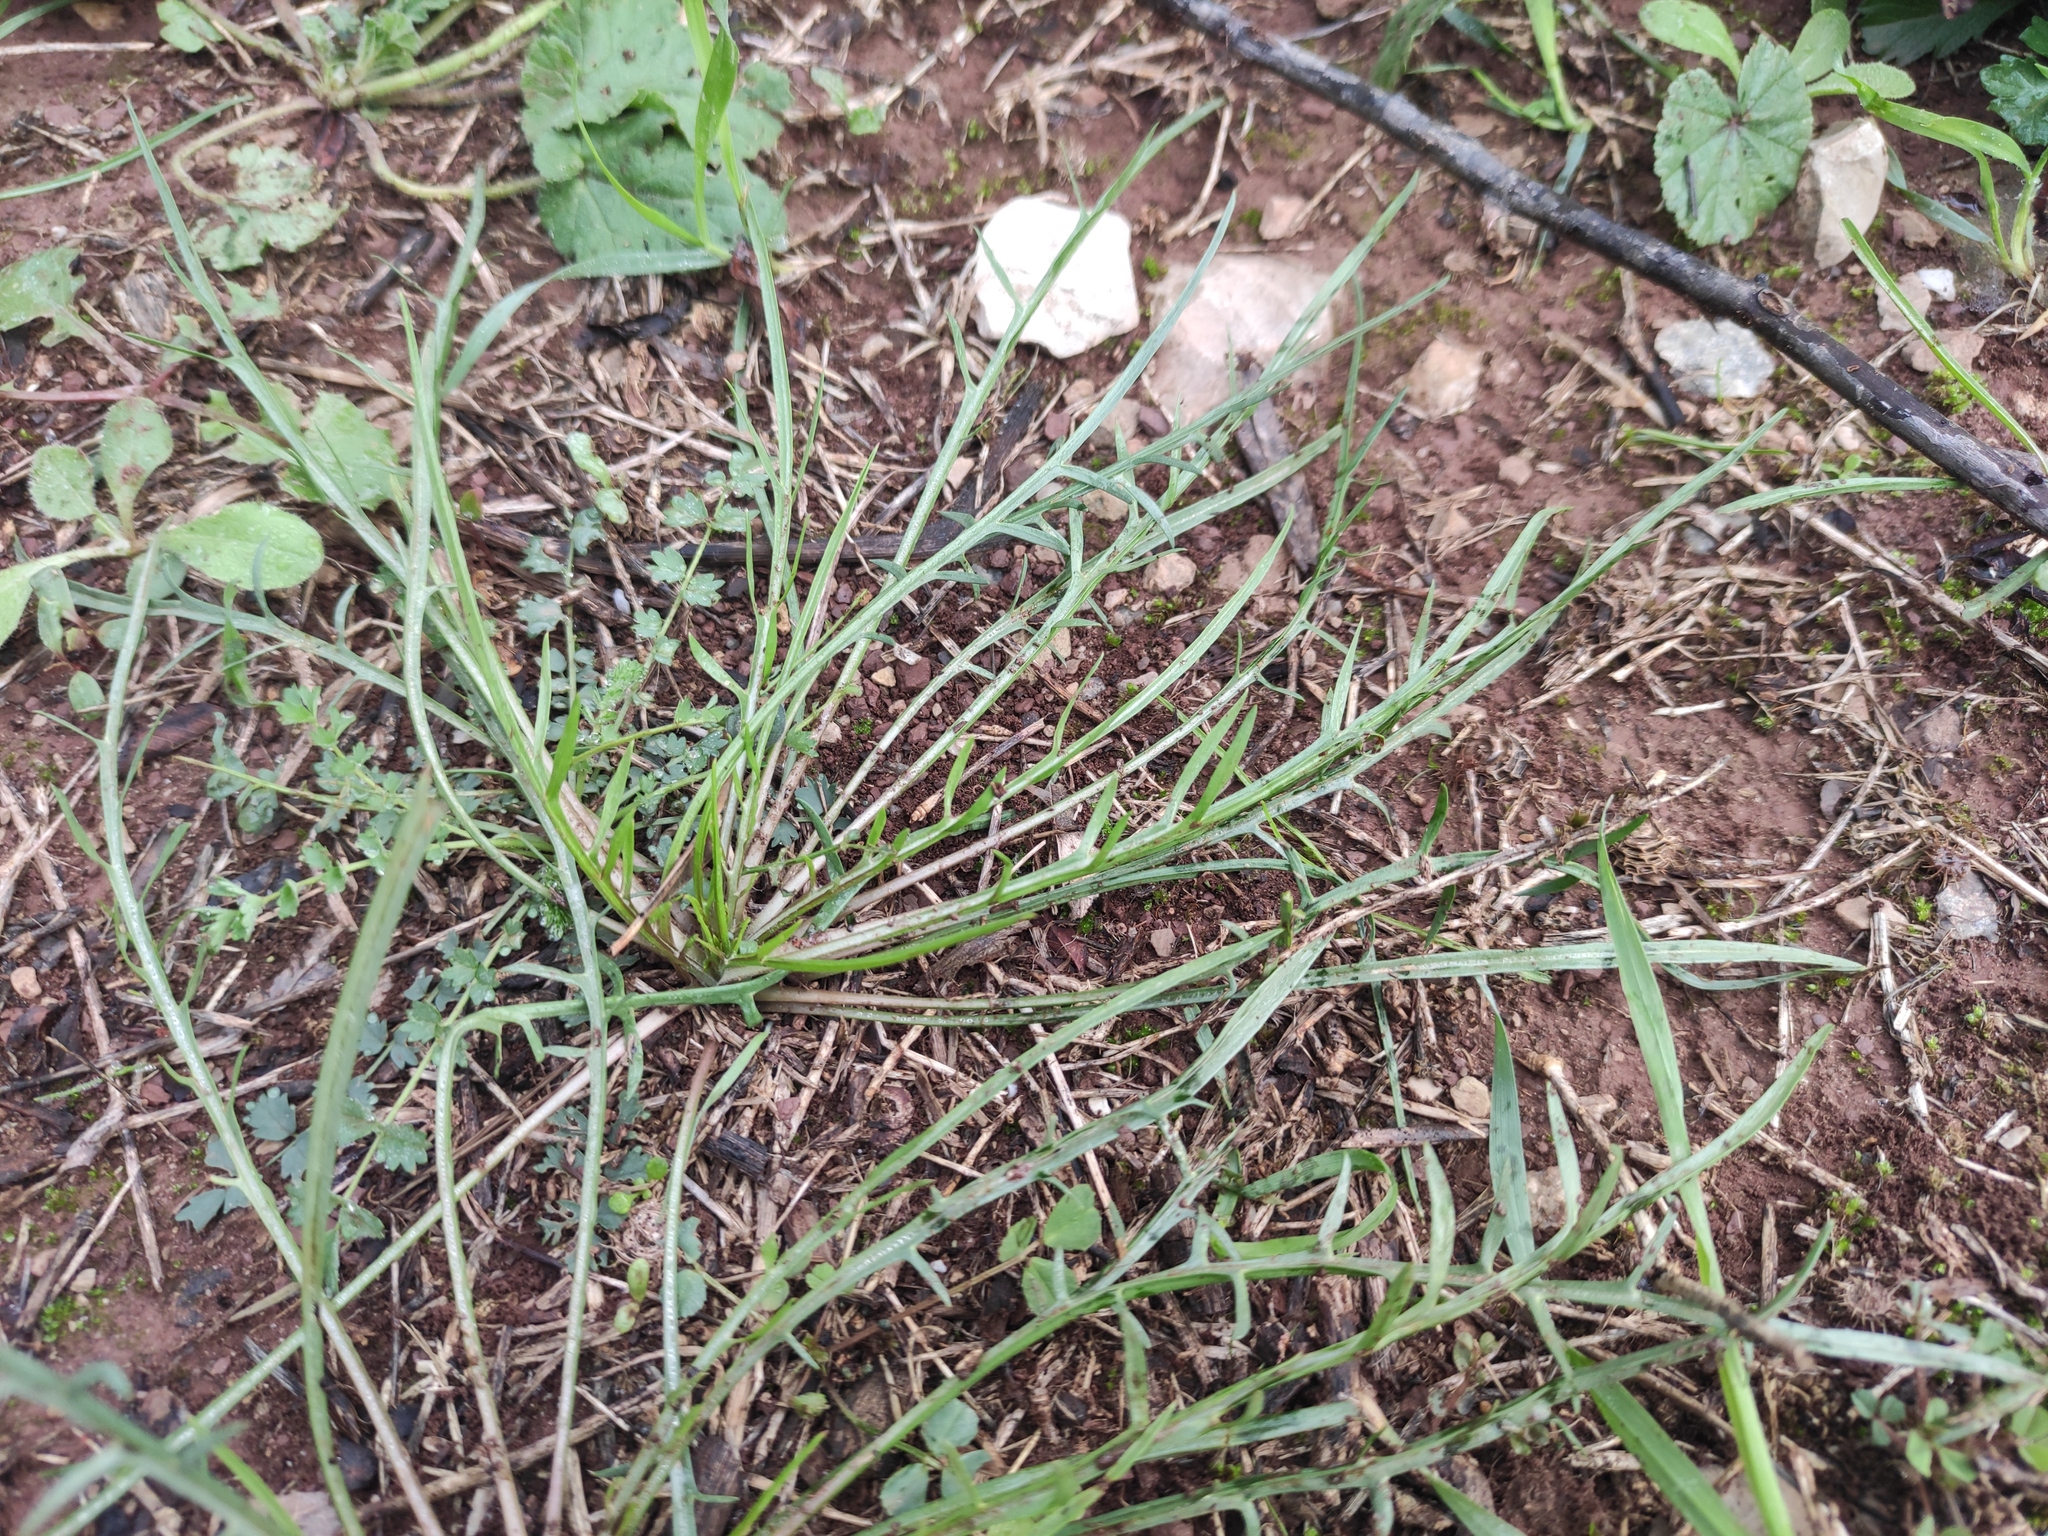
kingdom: Plantae
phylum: Tracheophyta
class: Magnoliopsida
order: Asterales
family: Asteraceae
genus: Scorzonera
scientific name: Scorzonera laciniata
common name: Cutleaf vipergrass
